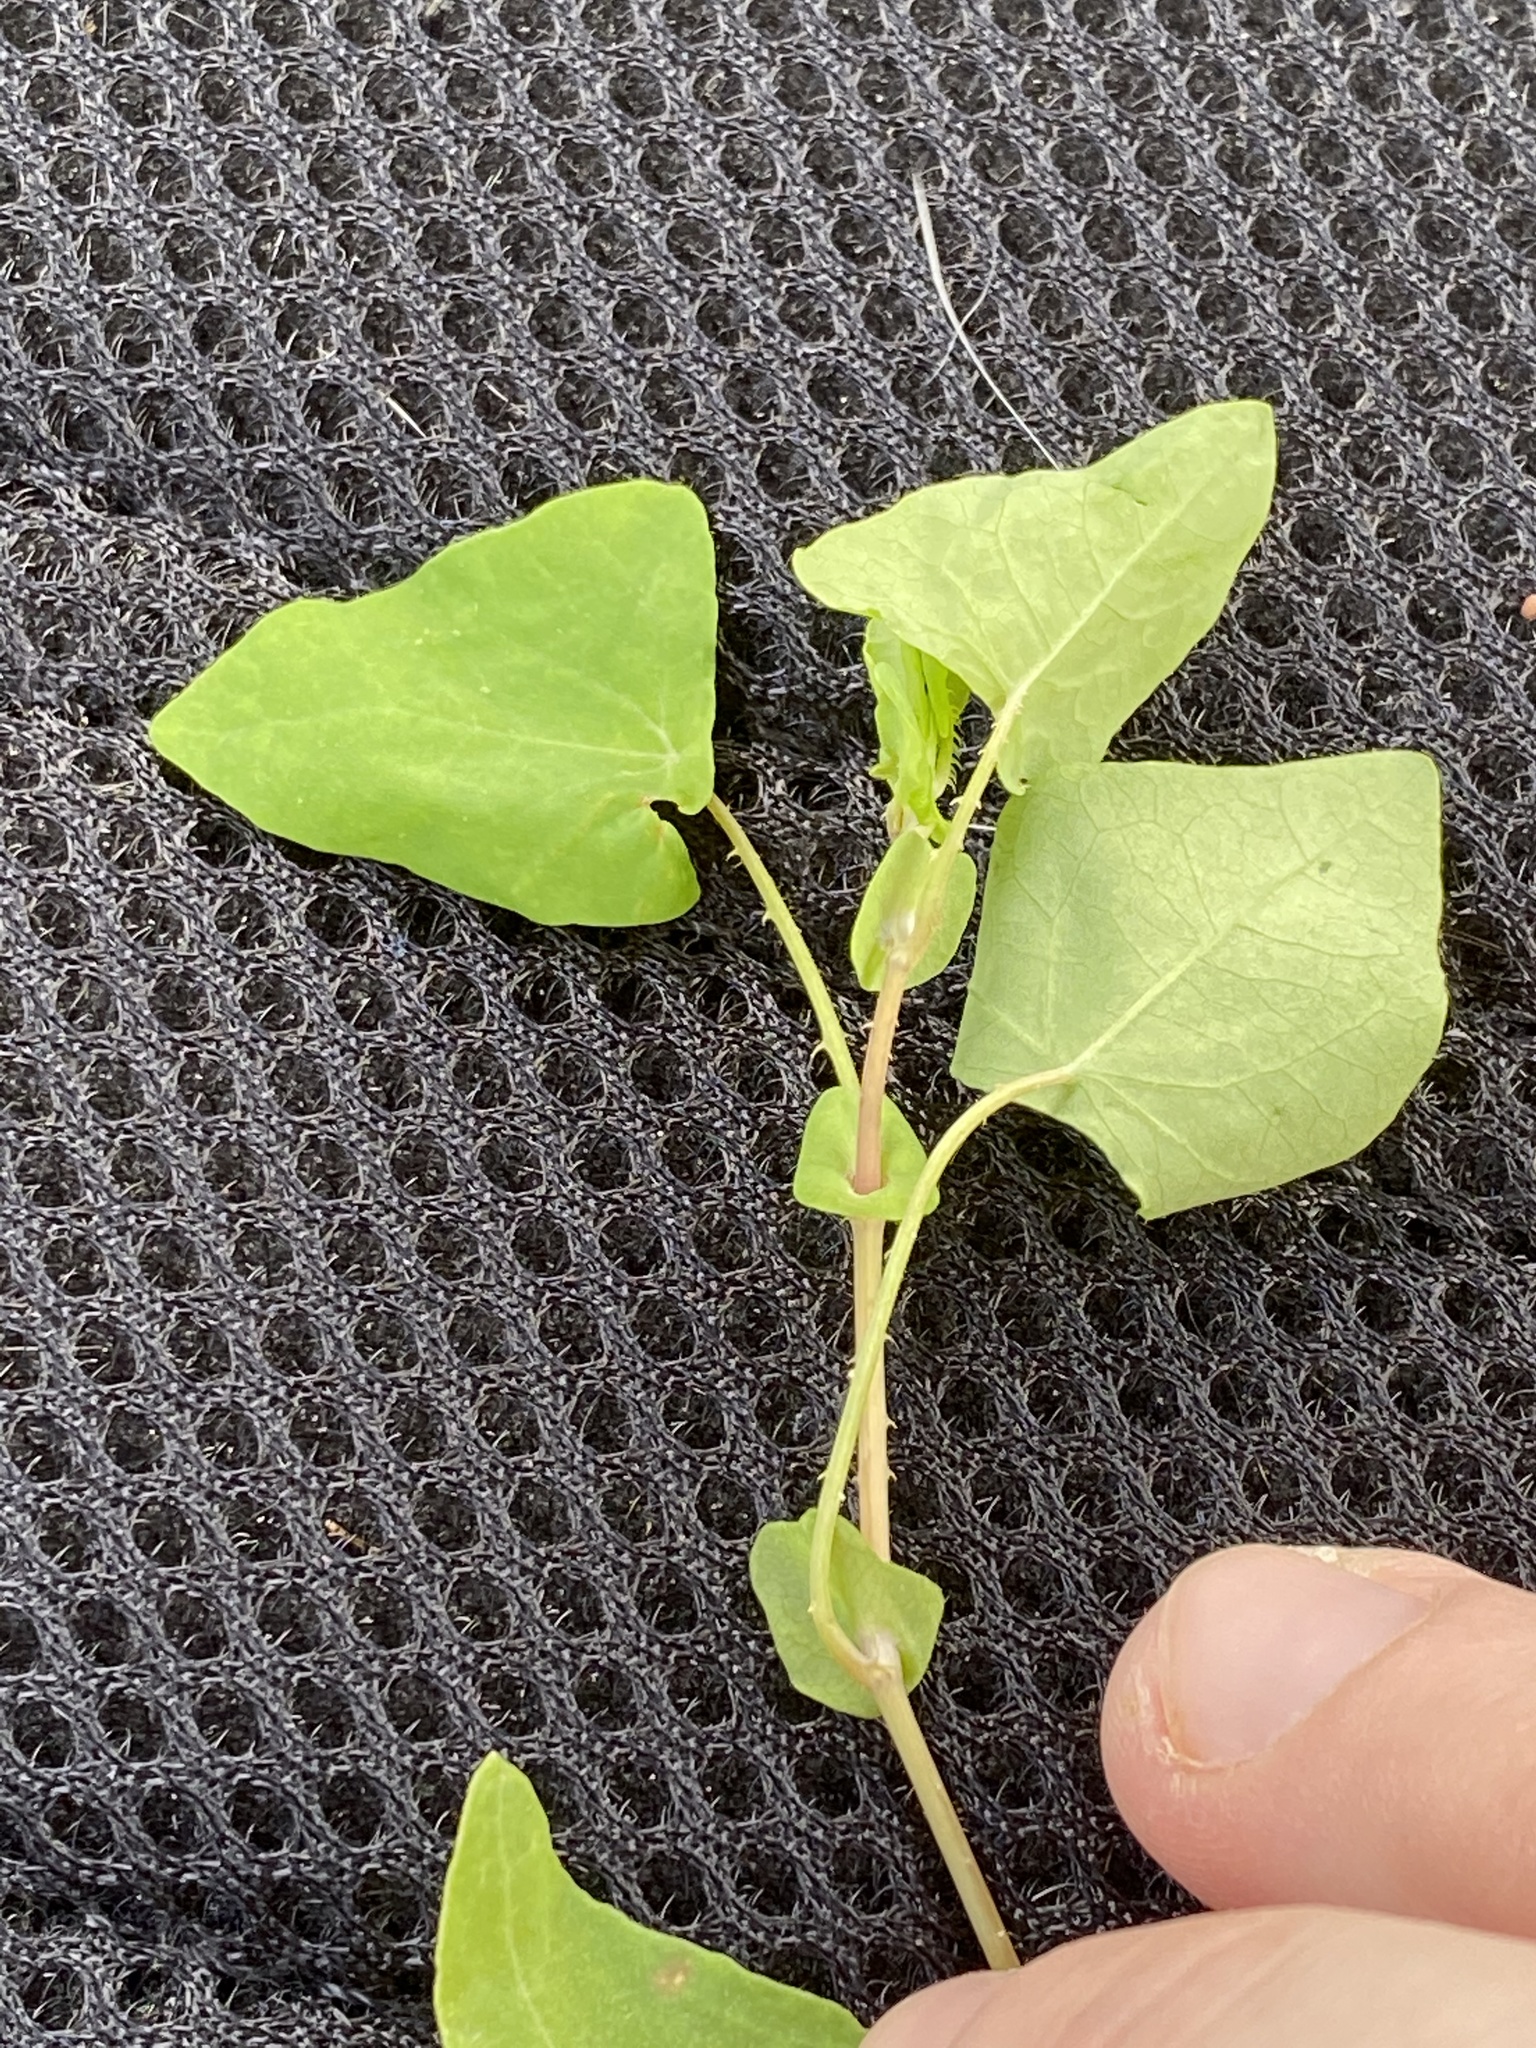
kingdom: Plantae
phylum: Tracheophyta
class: Magnoliopsida
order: Caryophyllales
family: Polygonaceae
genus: Persicaria
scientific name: Persicaria perfoliata
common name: Asiatic tearthumb
